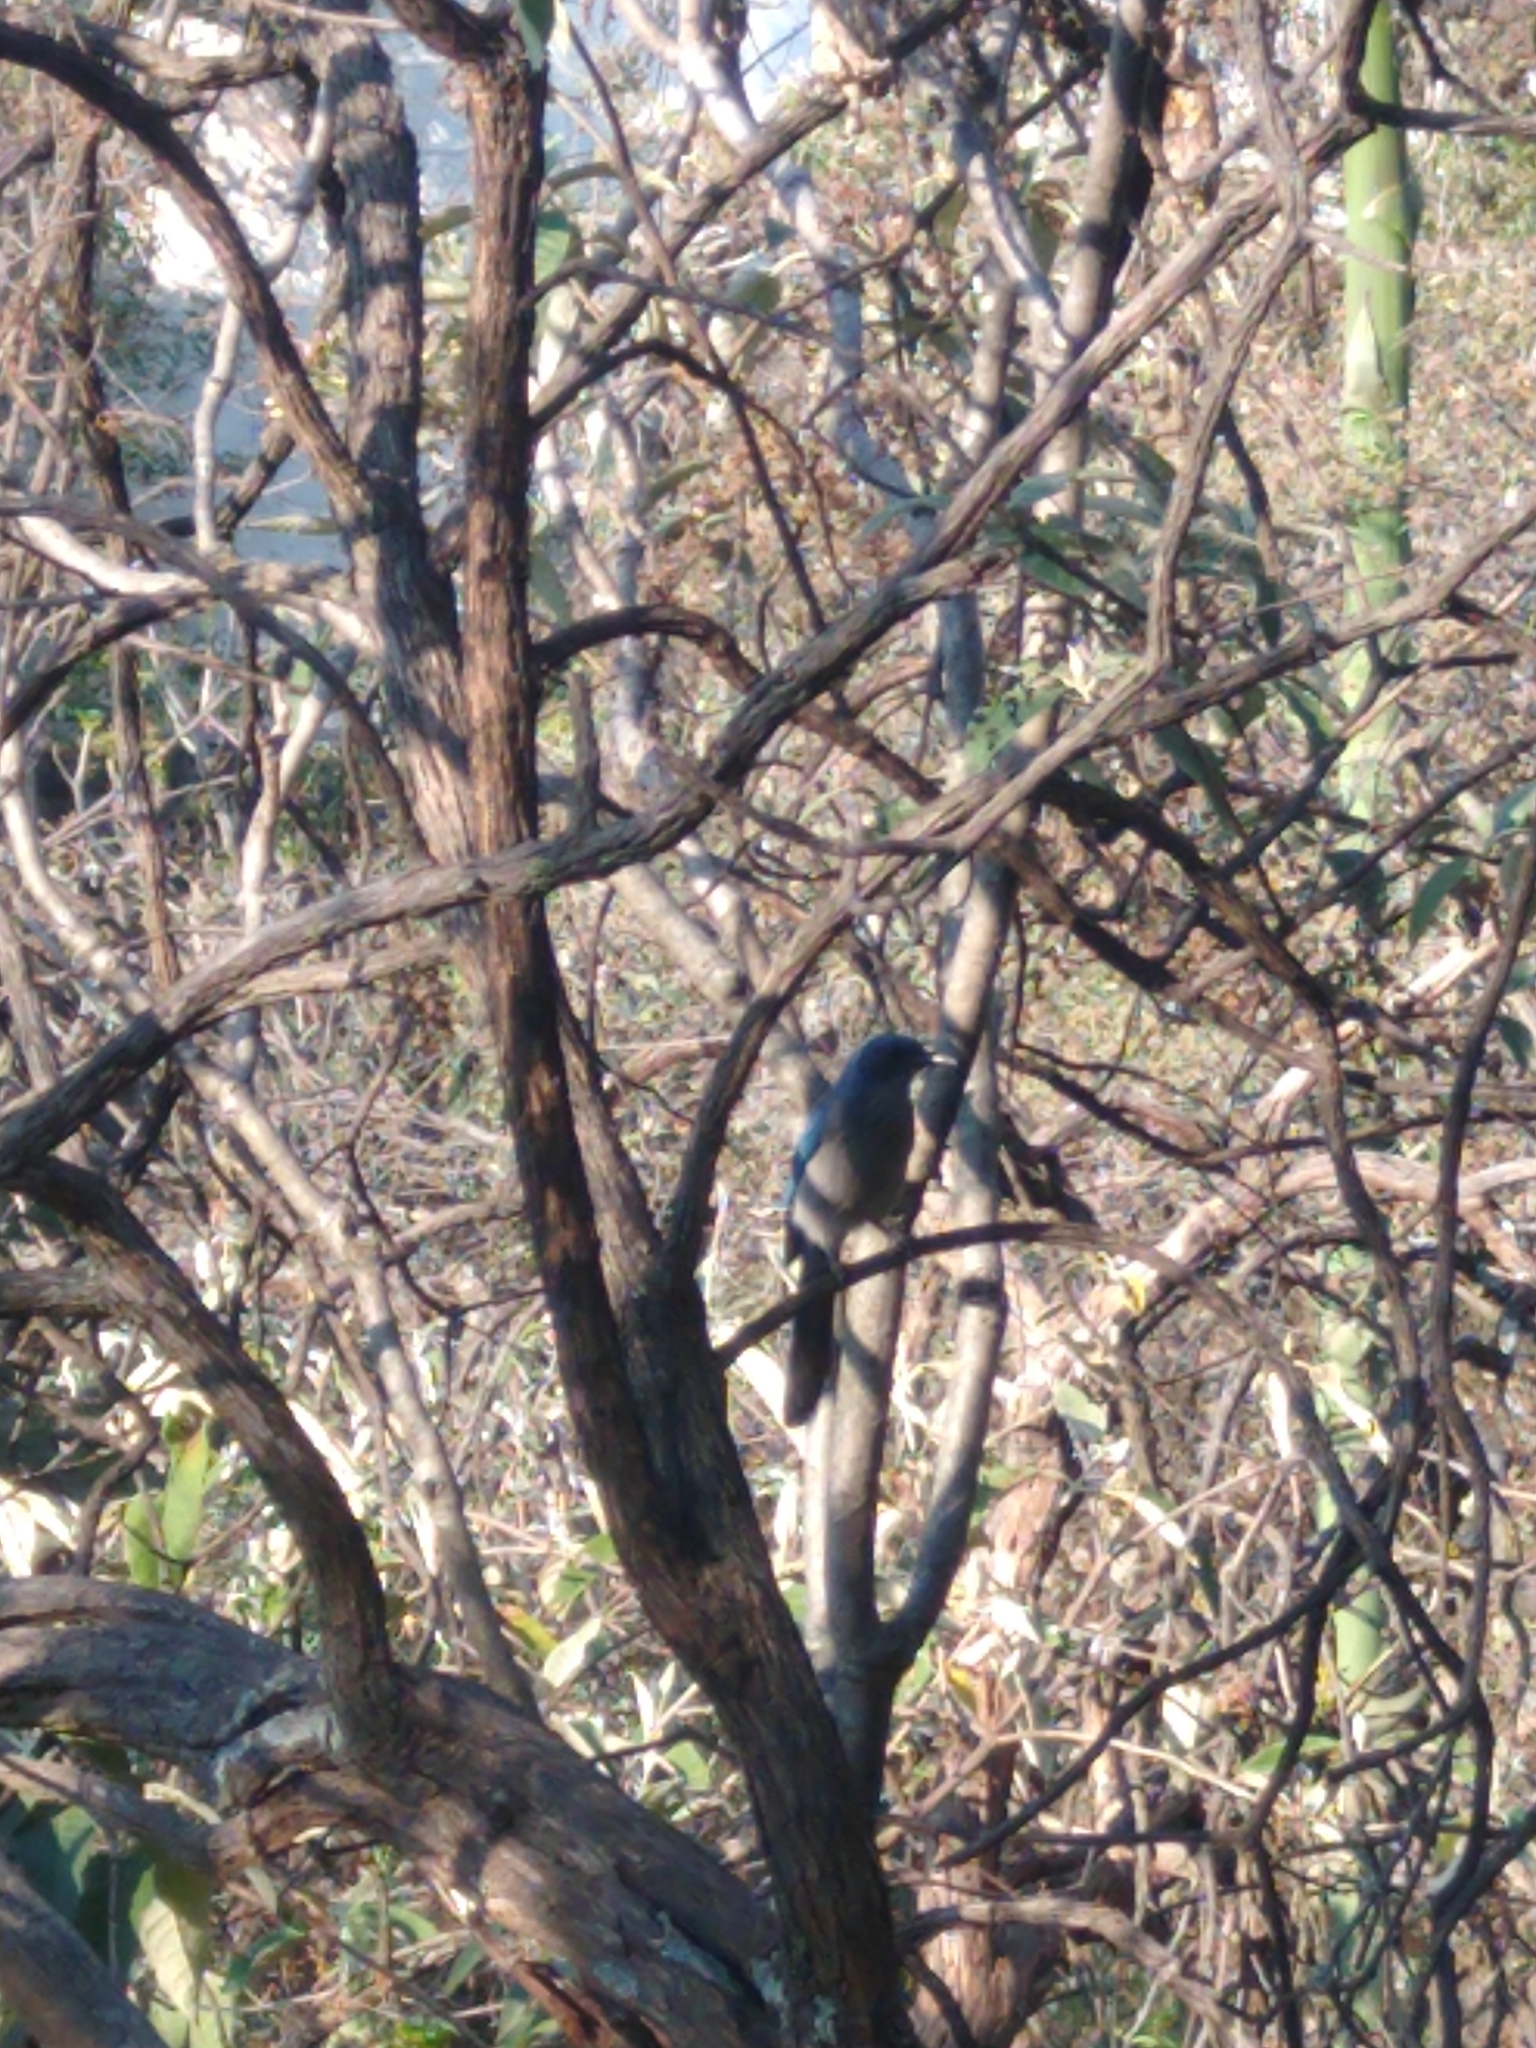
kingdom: Animalia
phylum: Chordata
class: Aves
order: Passeriformes
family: Corvidae
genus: Aphelocoma
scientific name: Aphelocoma woodhouseii
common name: Woodhouse's scrub-jay
